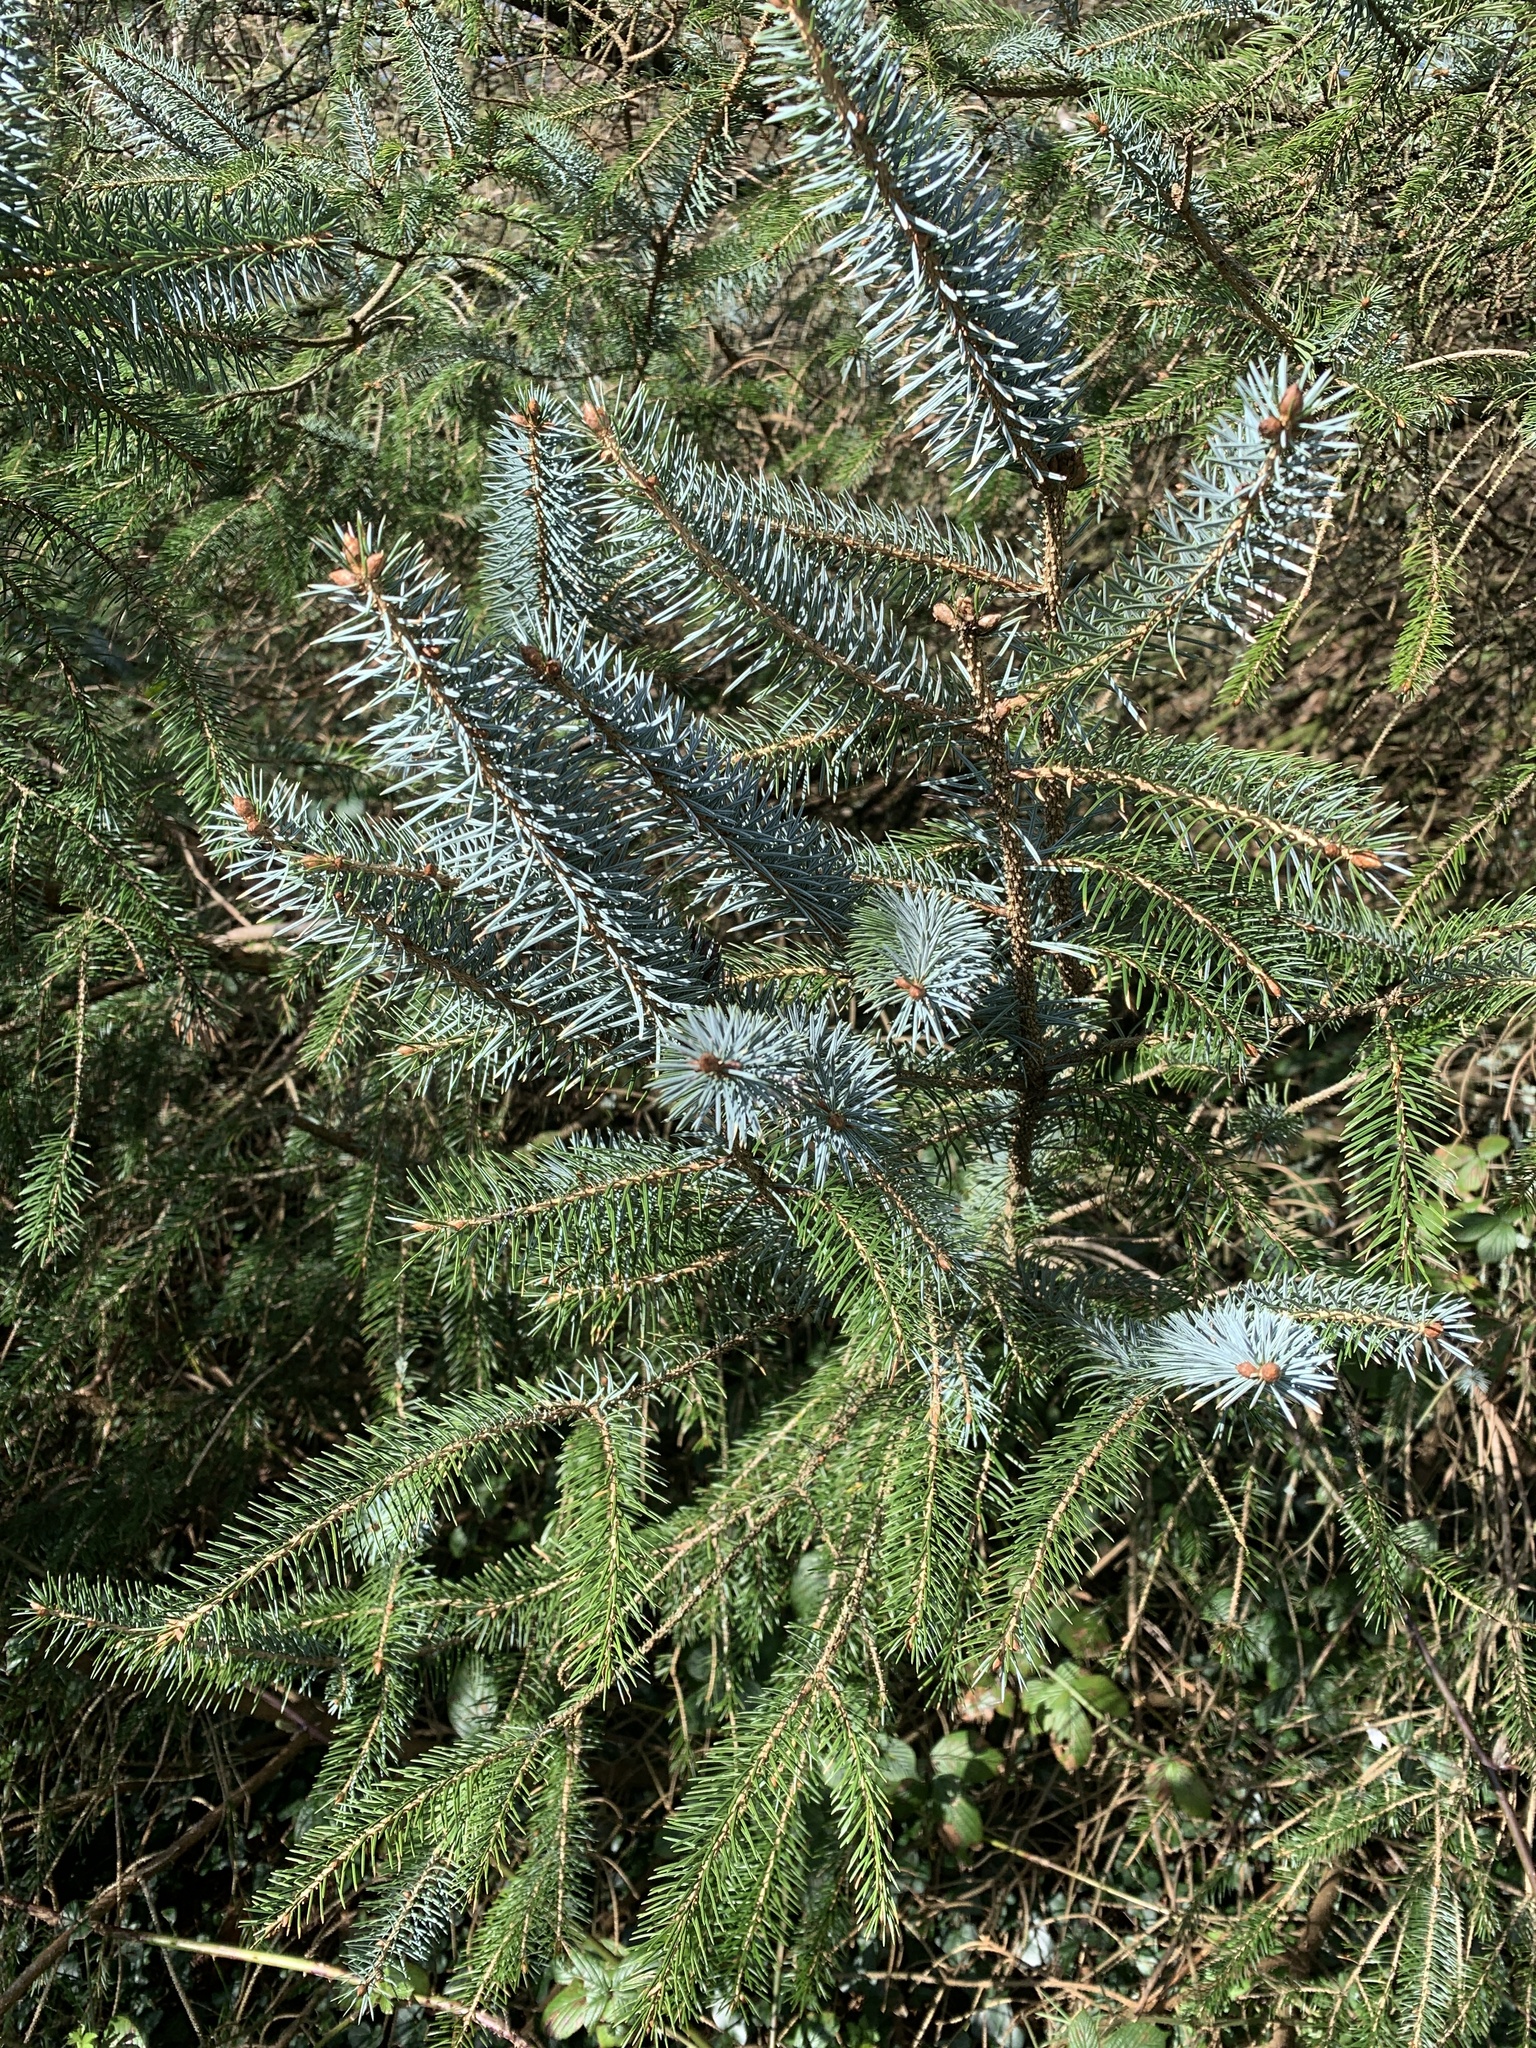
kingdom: Plantae
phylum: Tracheophyta
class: Pinopsida
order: Pinales
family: Pinaceae
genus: Picea
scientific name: Picea sitchensis
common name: Sitka spruce
